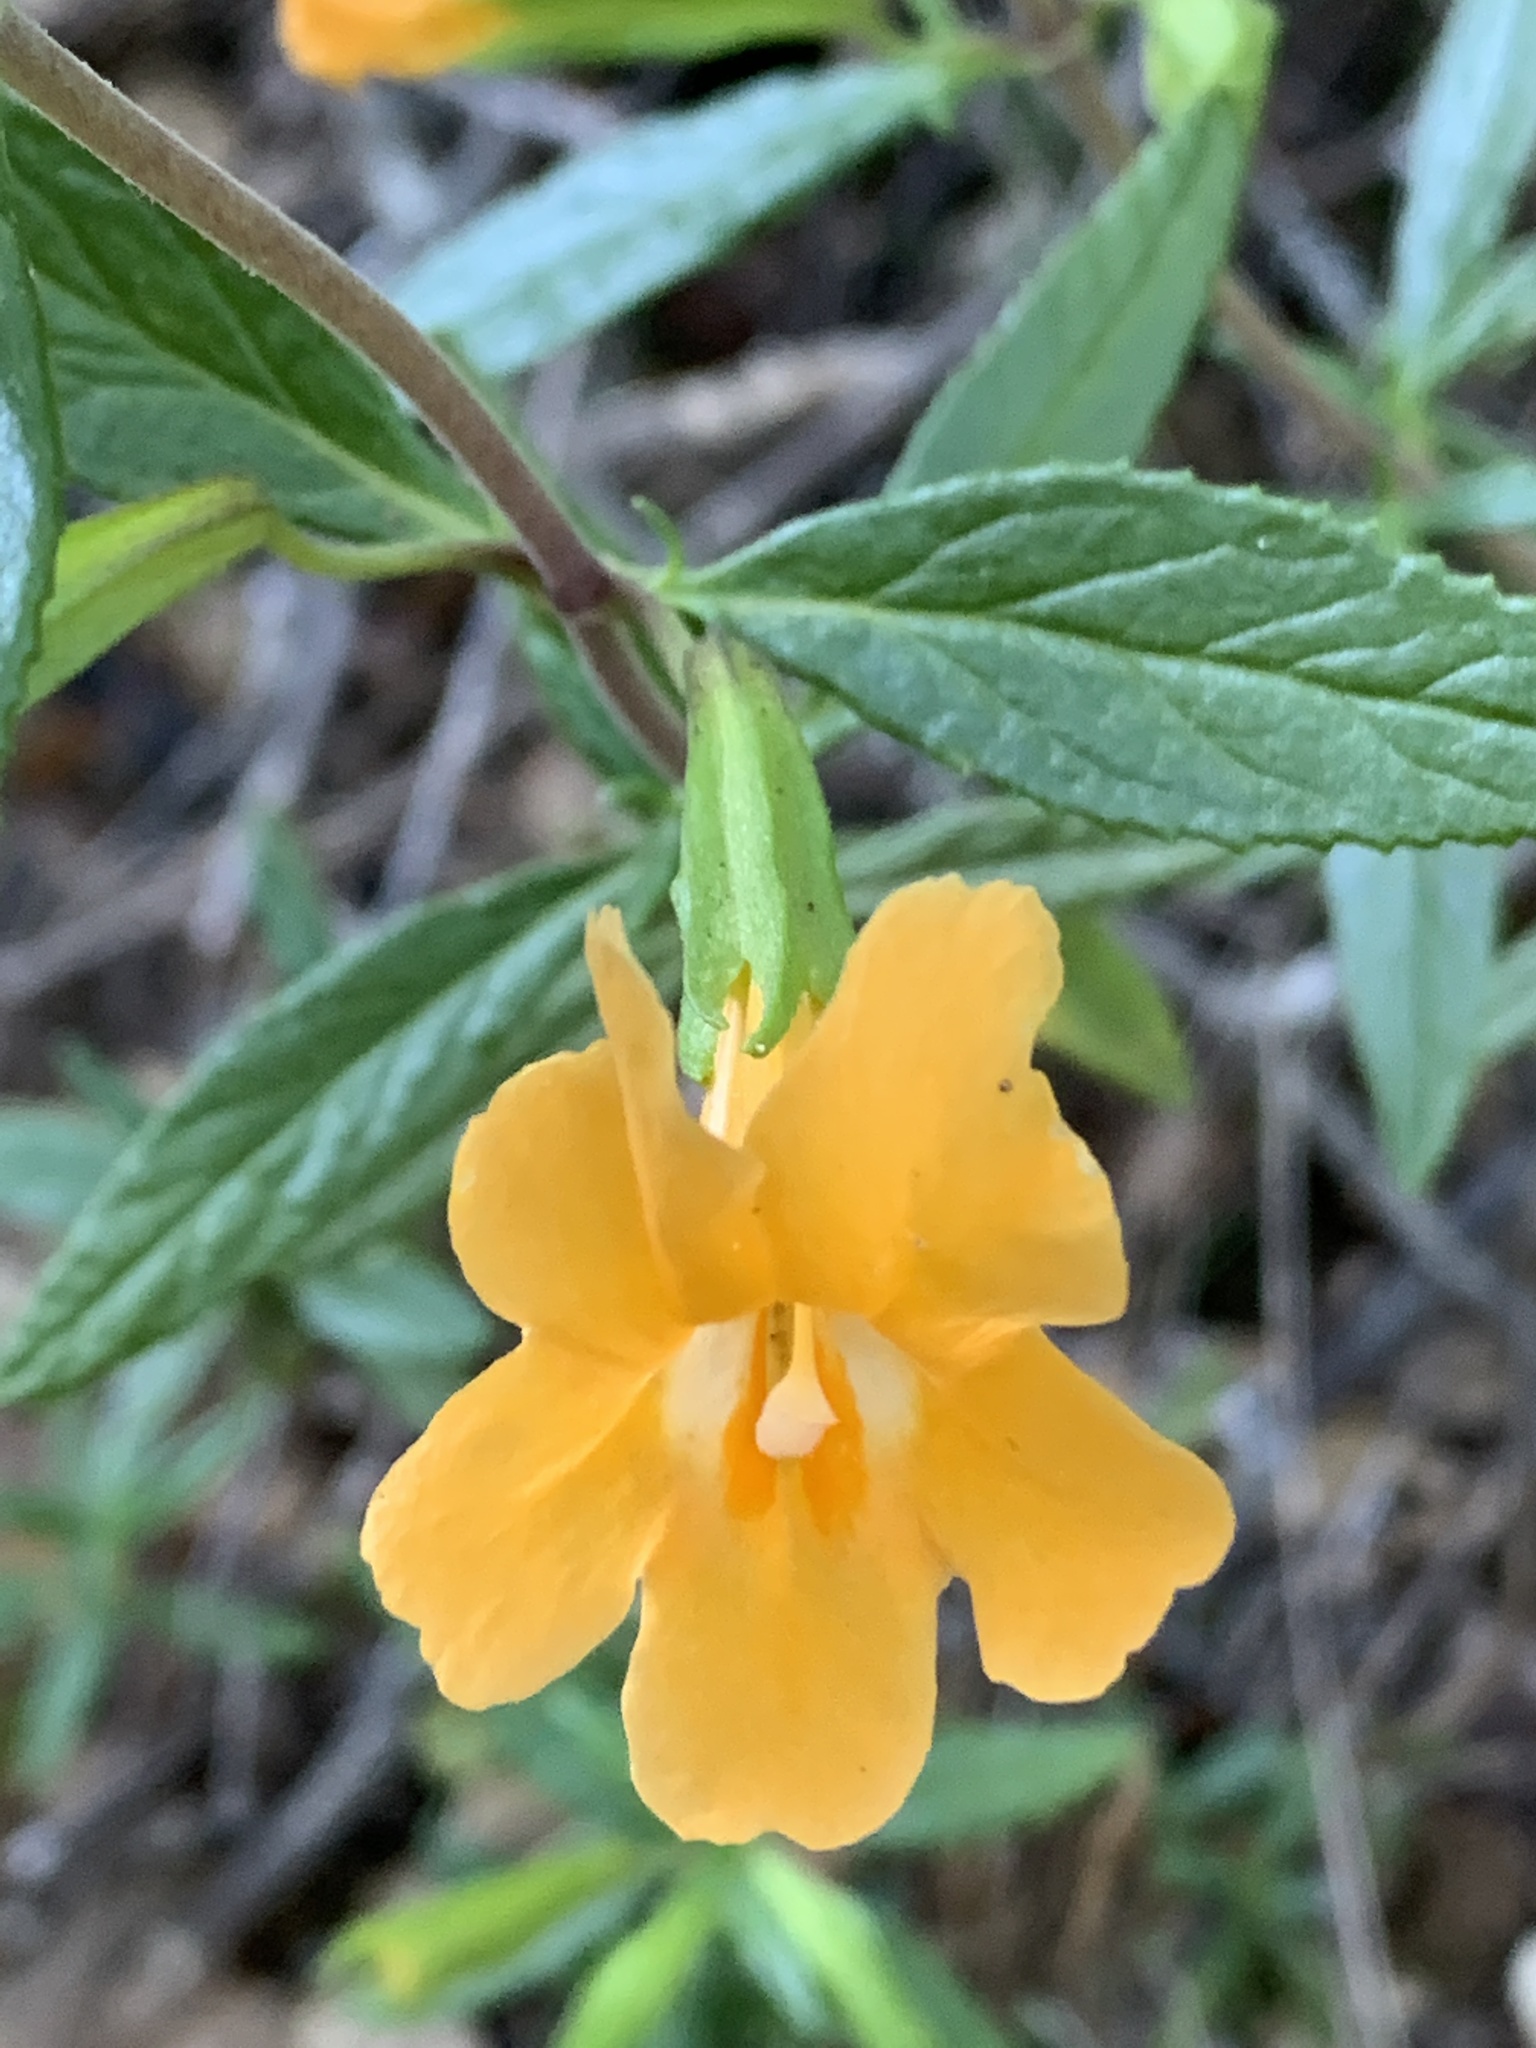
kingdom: Plantae
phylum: Tracheophyta
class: Magnoliopsida
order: Lamiales
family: Phrymaceae
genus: Diplacus
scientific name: Diplacus aurantiacus
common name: Bush monkey-flower
